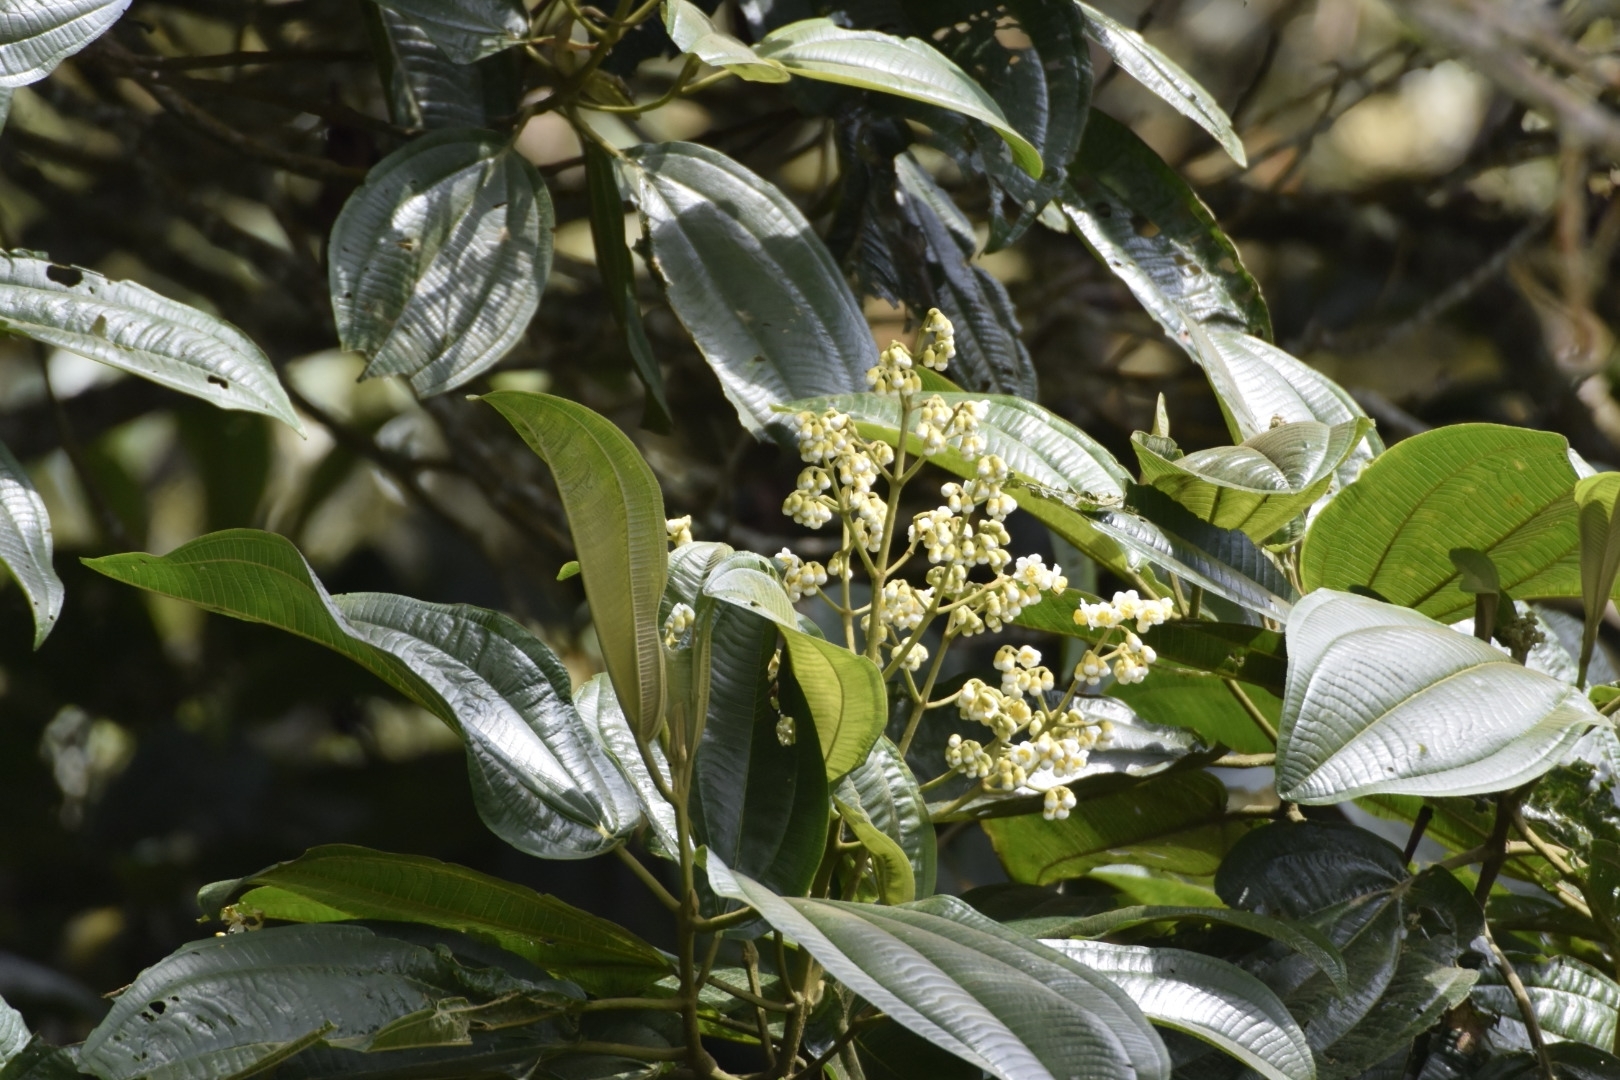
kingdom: Plantae
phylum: Tracheophyta
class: Magnoliopsida
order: Myrtales
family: Melastomataceae
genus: Miconia
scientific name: Miconia bella
